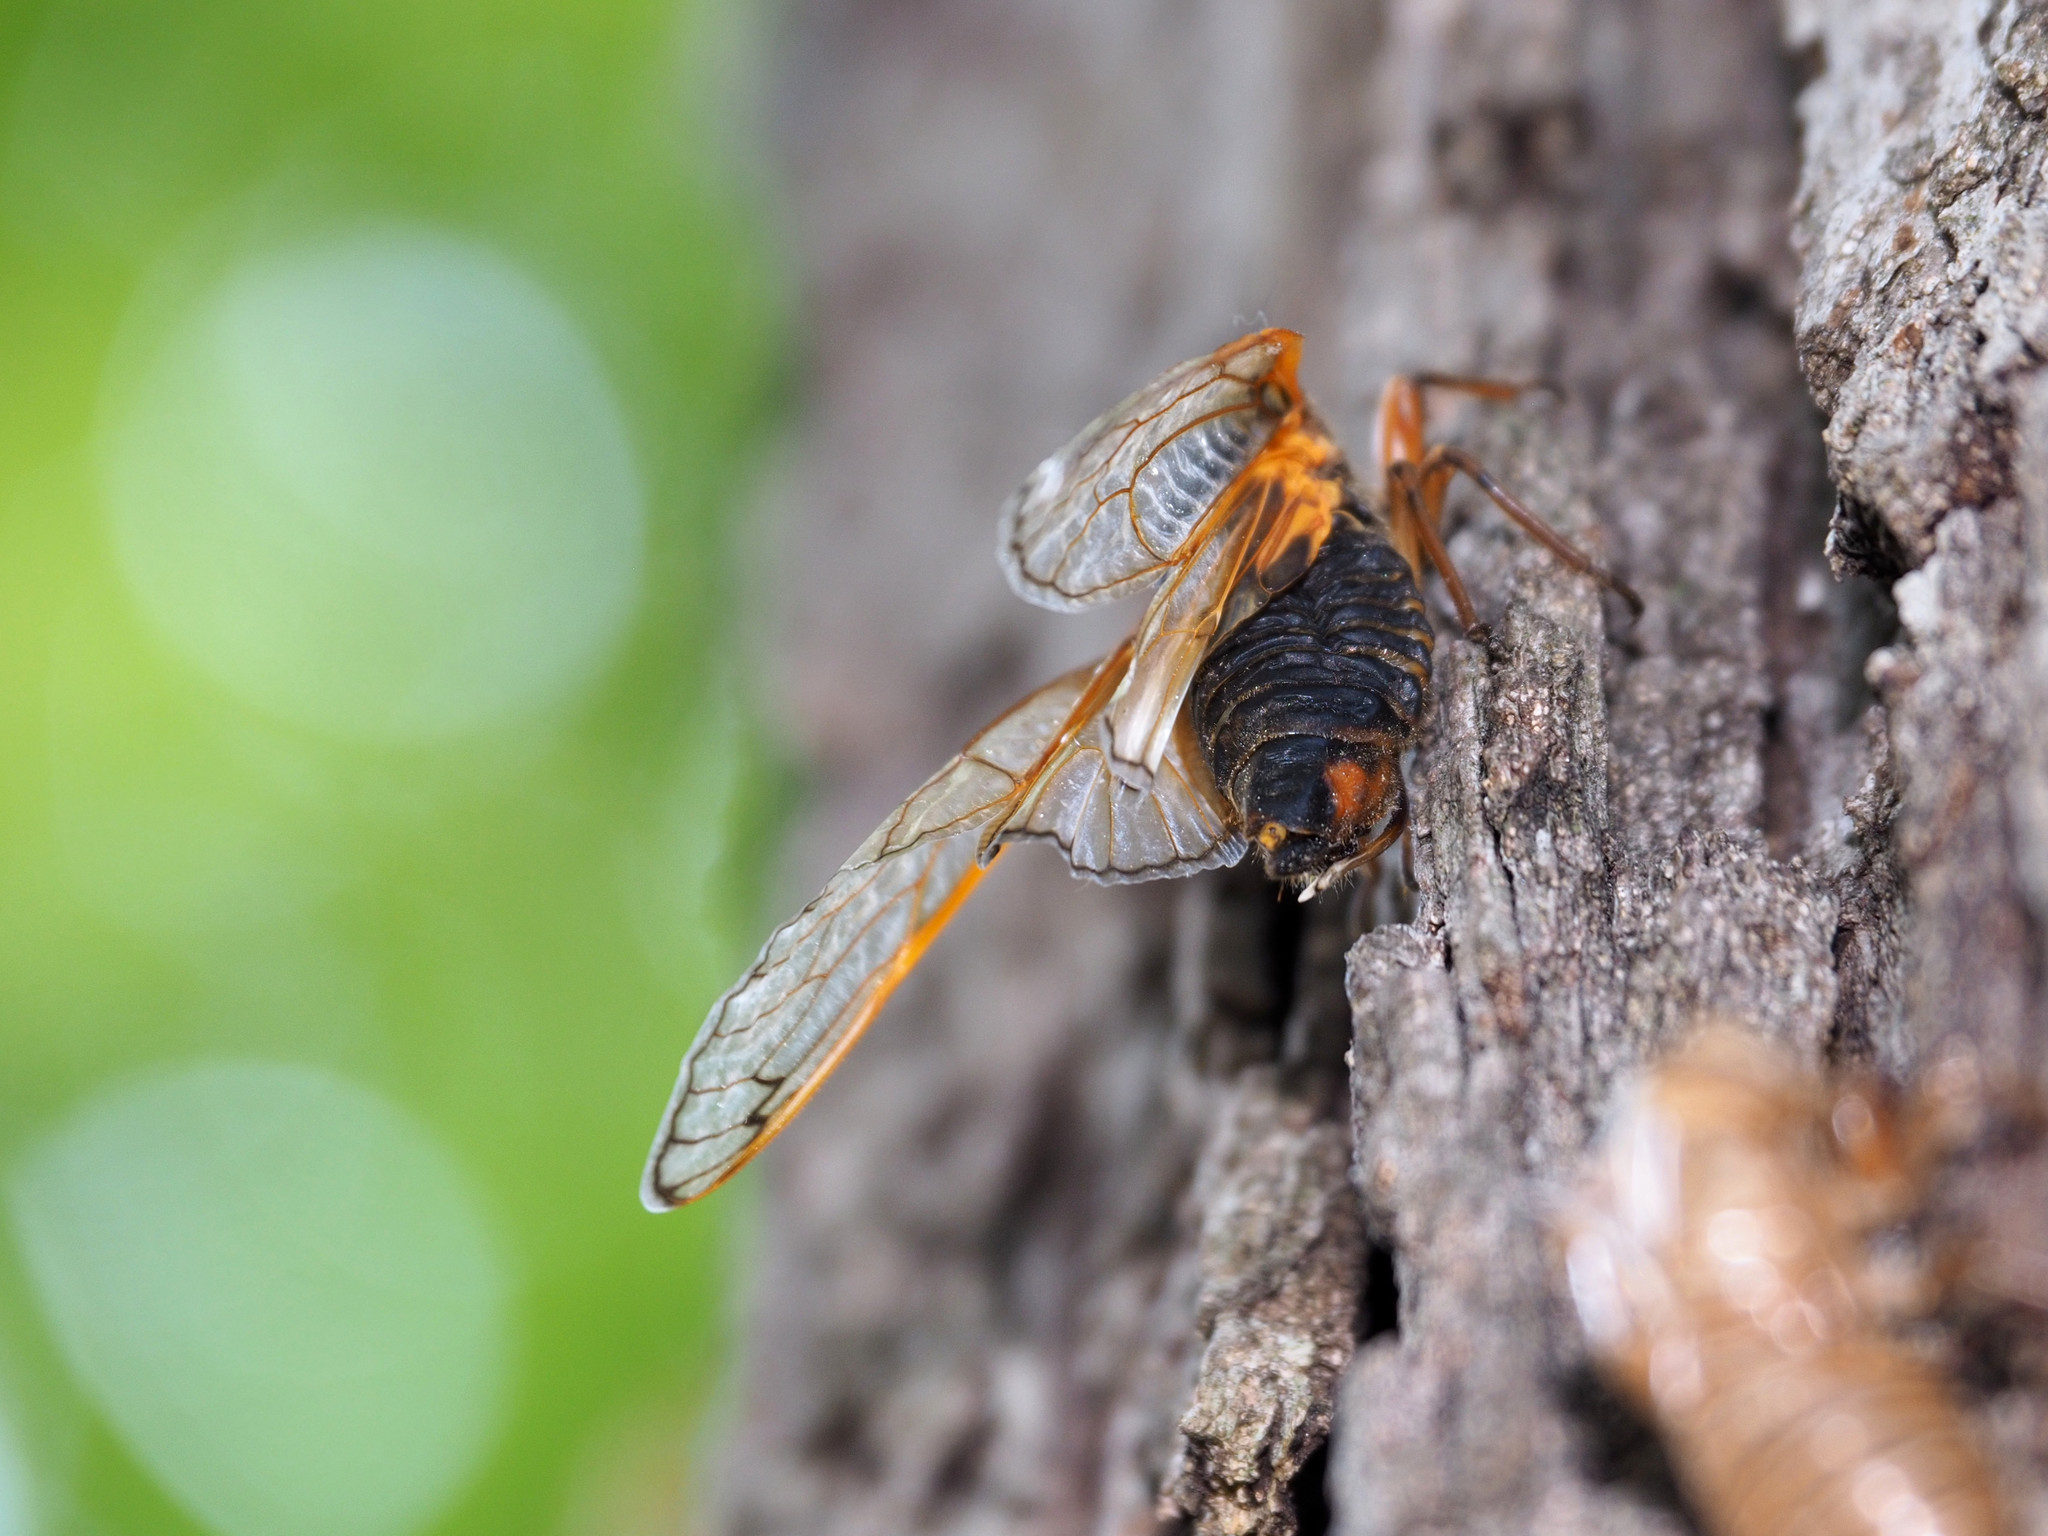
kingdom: Animalia
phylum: Arthropoda
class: Insecta
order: Hemiptera
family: Cicadidae
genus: Magicicada
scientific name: Magicicada septendecim
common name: Periodical cicada
